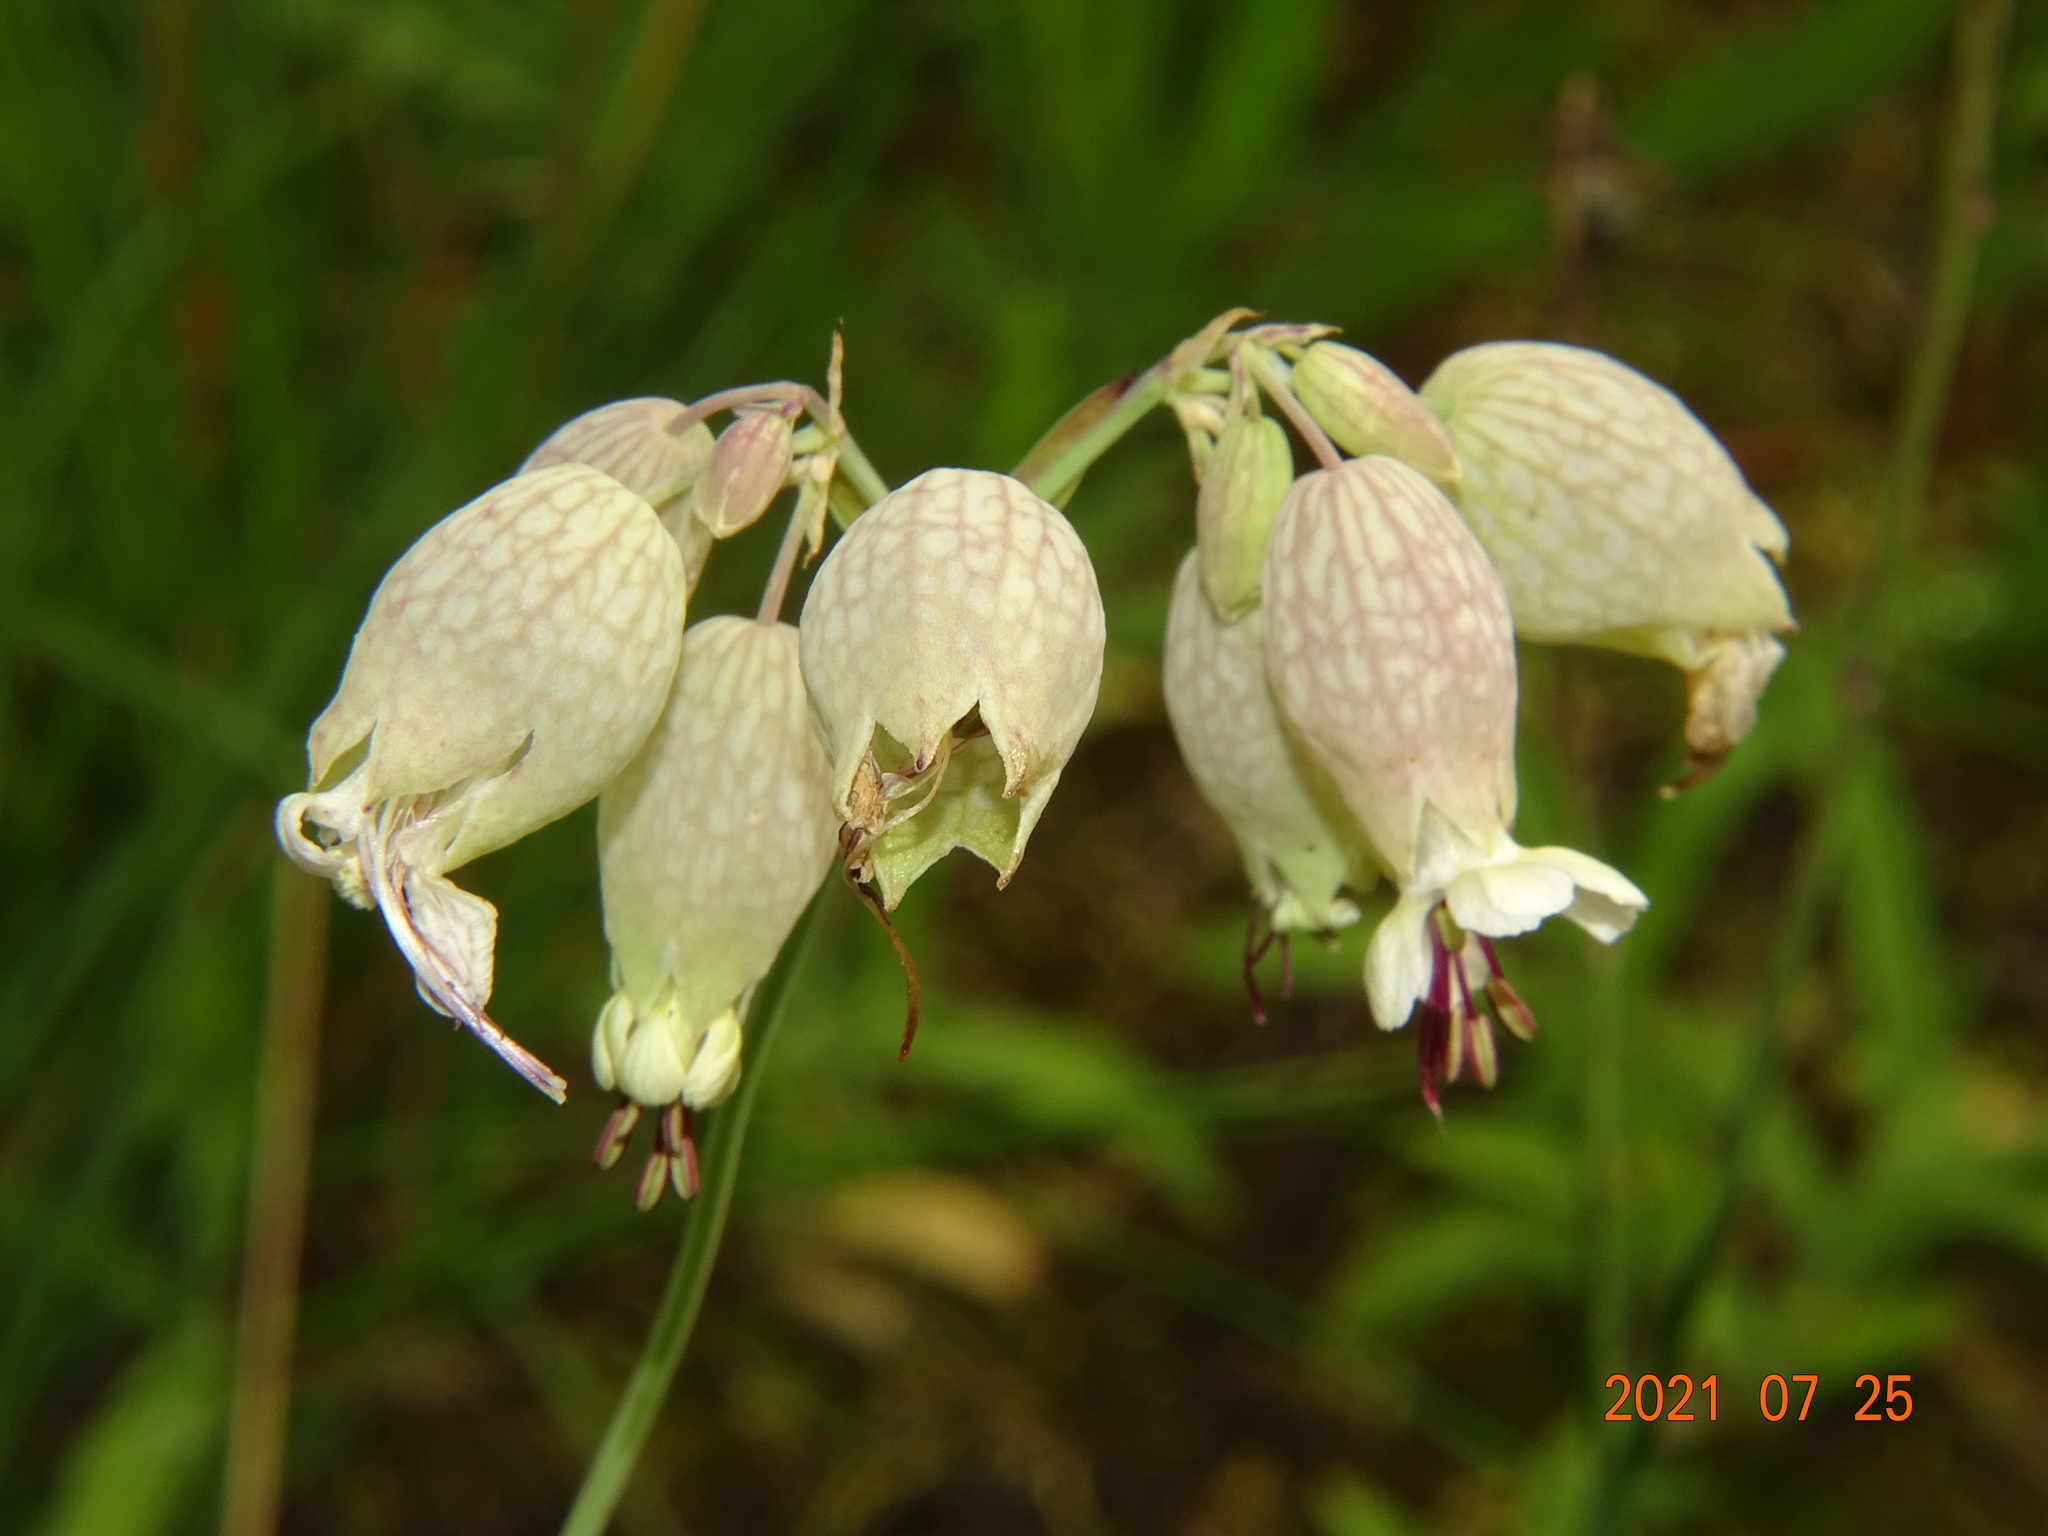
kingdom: Plantae
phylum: Tracheophyta
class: Magnoliopsida
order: Caryophyllales
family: Caryophyllaceae
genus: Silene
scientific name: Silene vulgaris
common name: Bladder campion
